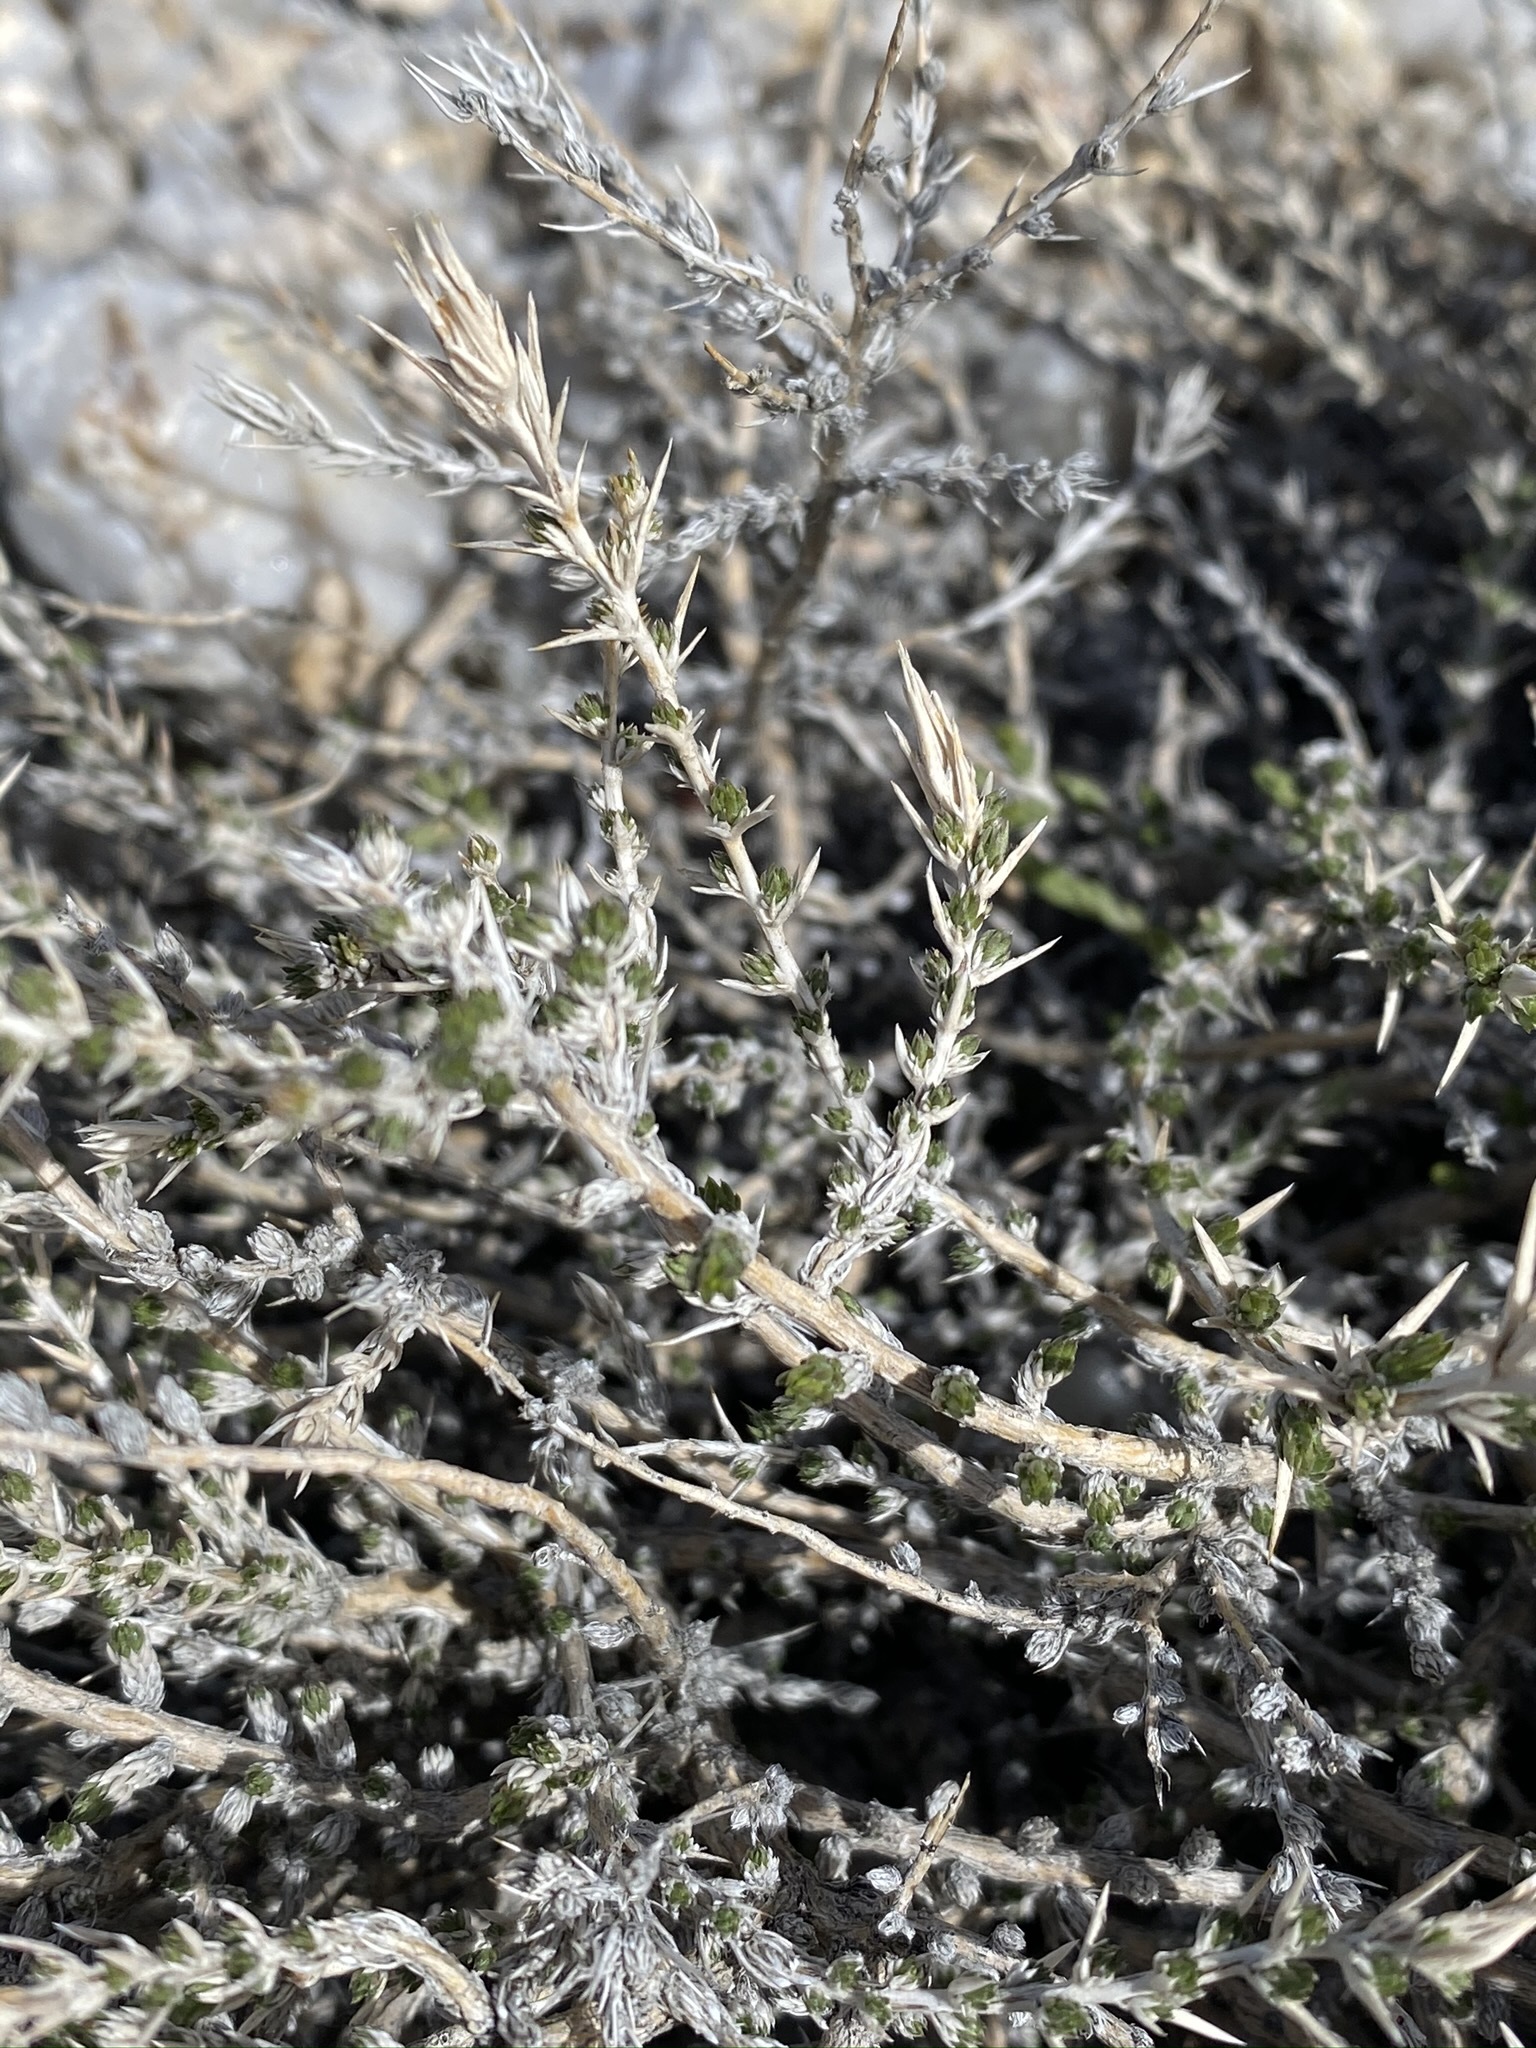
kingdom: Plantae
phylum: Tracheophyta
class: Magnoliopsida
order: Ericales
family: Polemoniaceae
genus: Linanthus
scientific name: Linanthus pungens
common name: Granite prickly phlox
